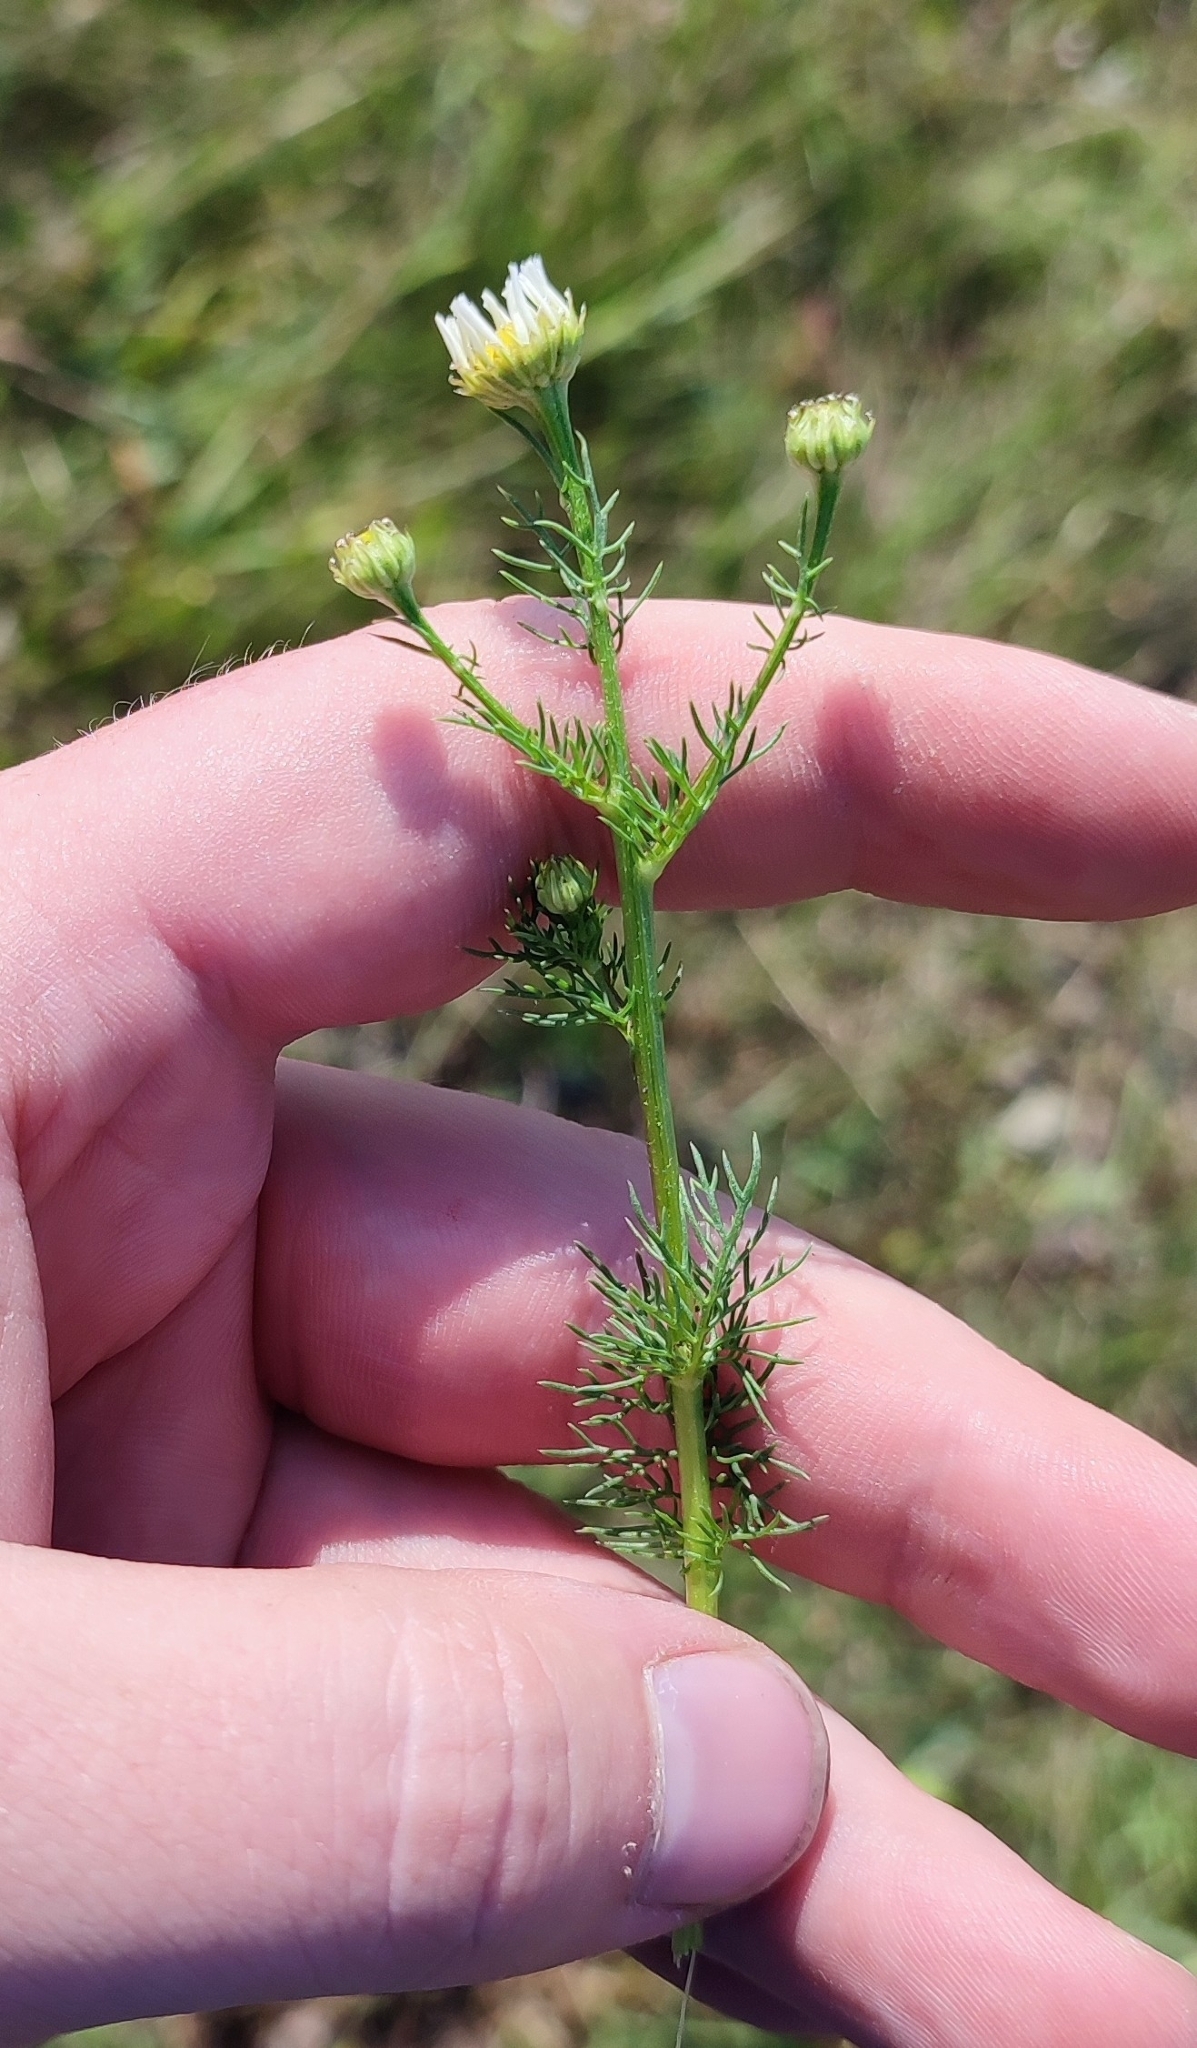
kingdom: Plantae
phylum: Tracheophyta
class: Magnoliopsida
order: Asterales
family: Asteraceae
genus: Tripleurospermum
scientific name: Tripleurospermum inodorum
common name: Scentless mayweed
